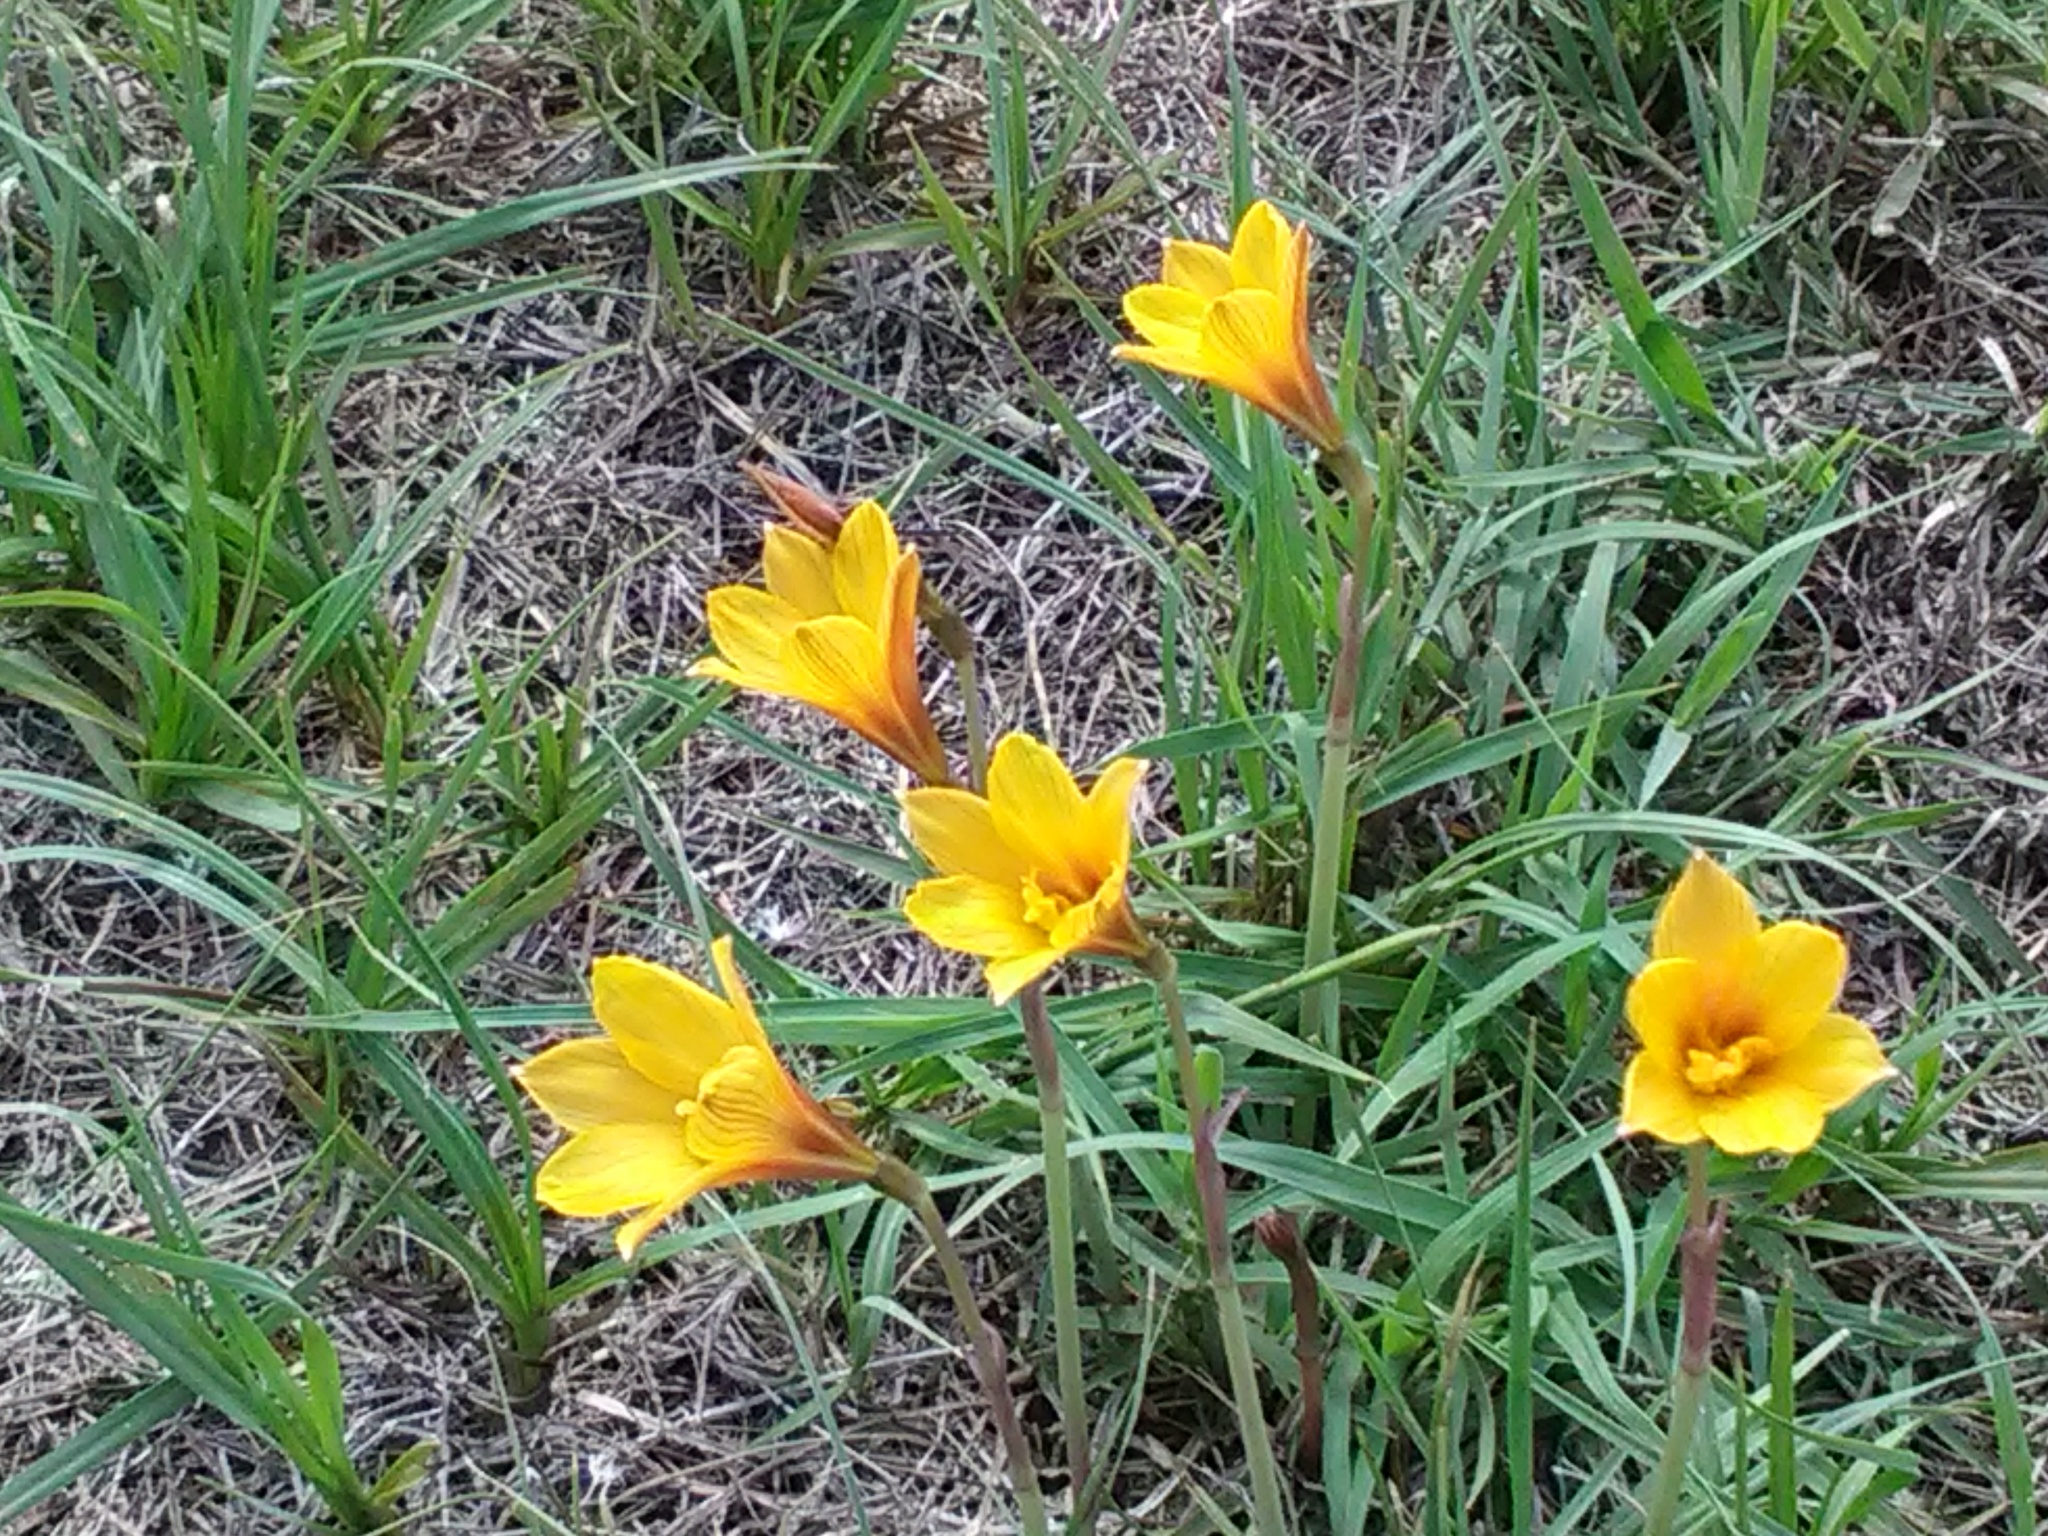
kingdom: Plantae
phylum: Tracheophyta
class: Liliopsida
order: Asparagales
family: Amaryllidaceae
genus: Zephyranthes
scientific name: Zephyranthes tubispatha
